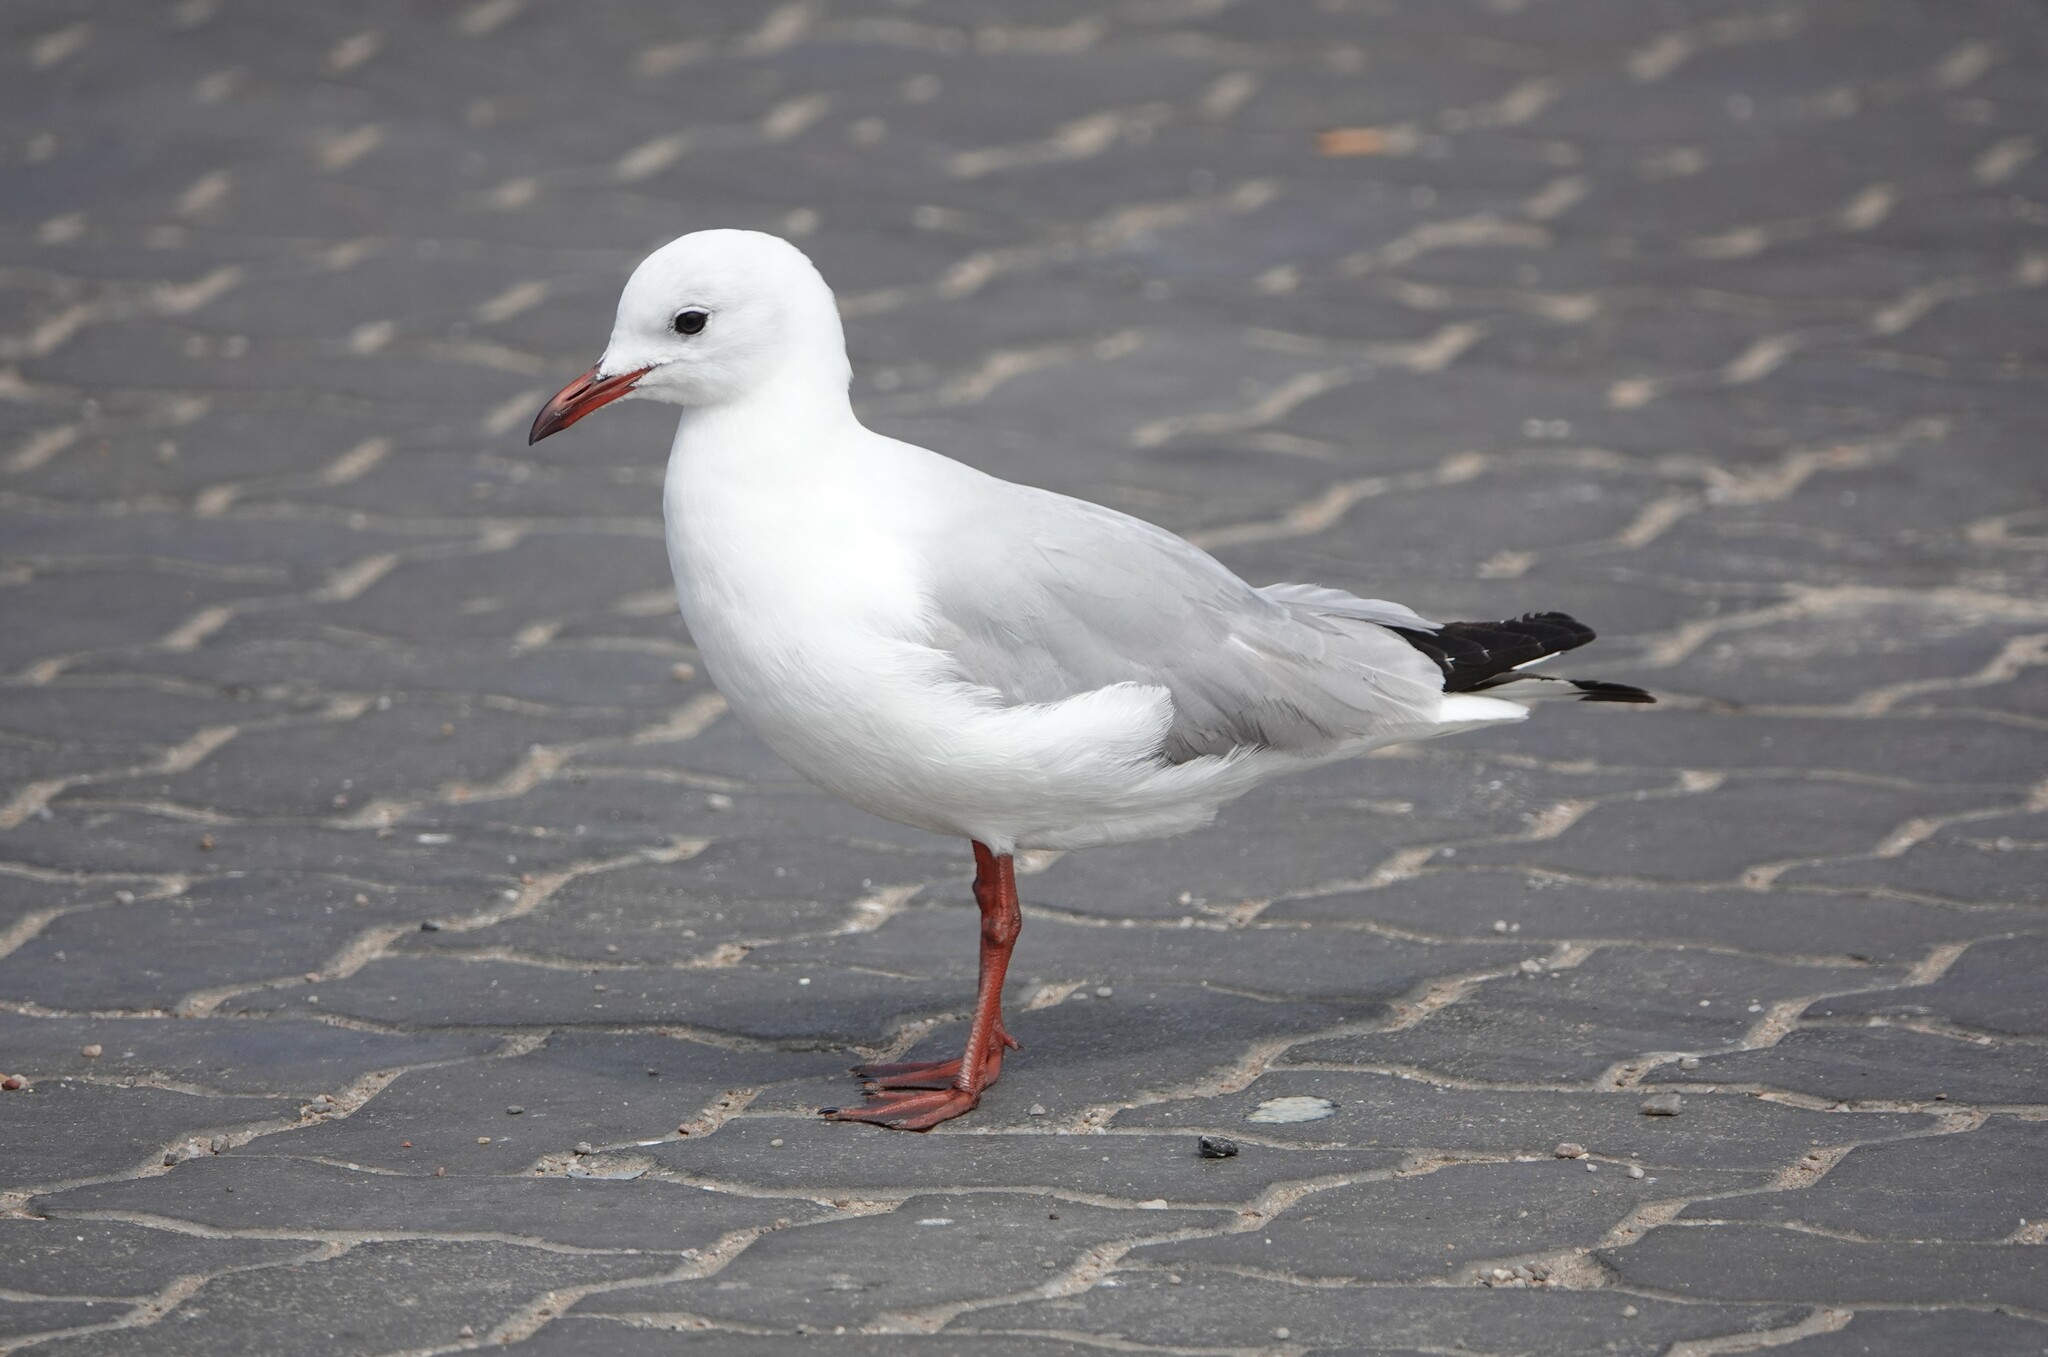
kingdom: Animalia
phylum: Chordata
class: Aves
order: Charadriiformes
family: Laridae
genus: Chroicocephalus
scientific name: Chroicocephalus hartlaubii
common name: Hartlaub's gull
